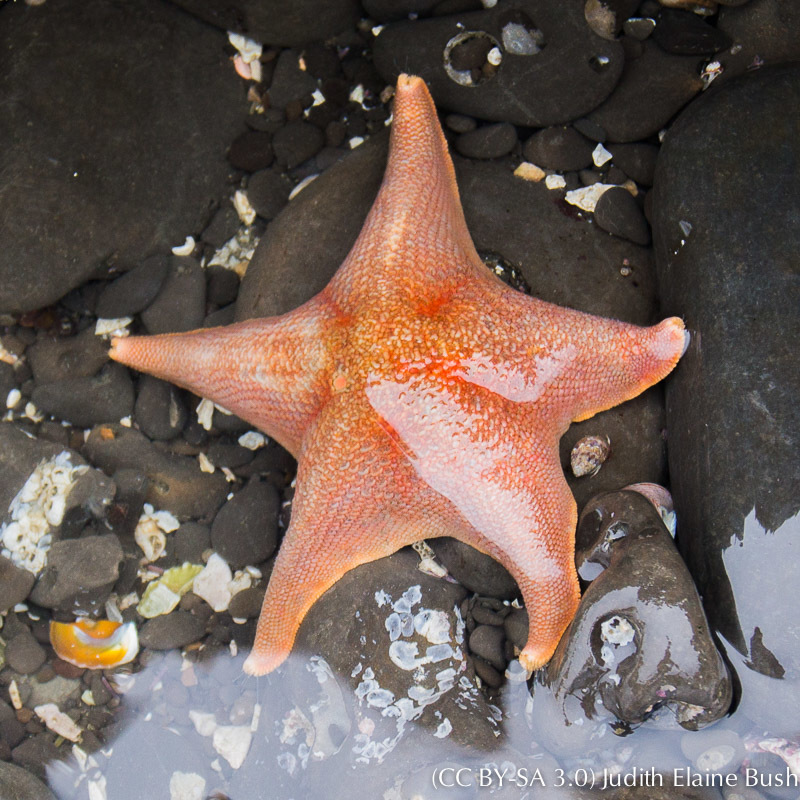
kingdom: Animalia
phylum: Echinodermata
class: Asteroidea
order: Valvatida
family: Asterinidae
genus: Patiria
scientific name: Patiria miniata
